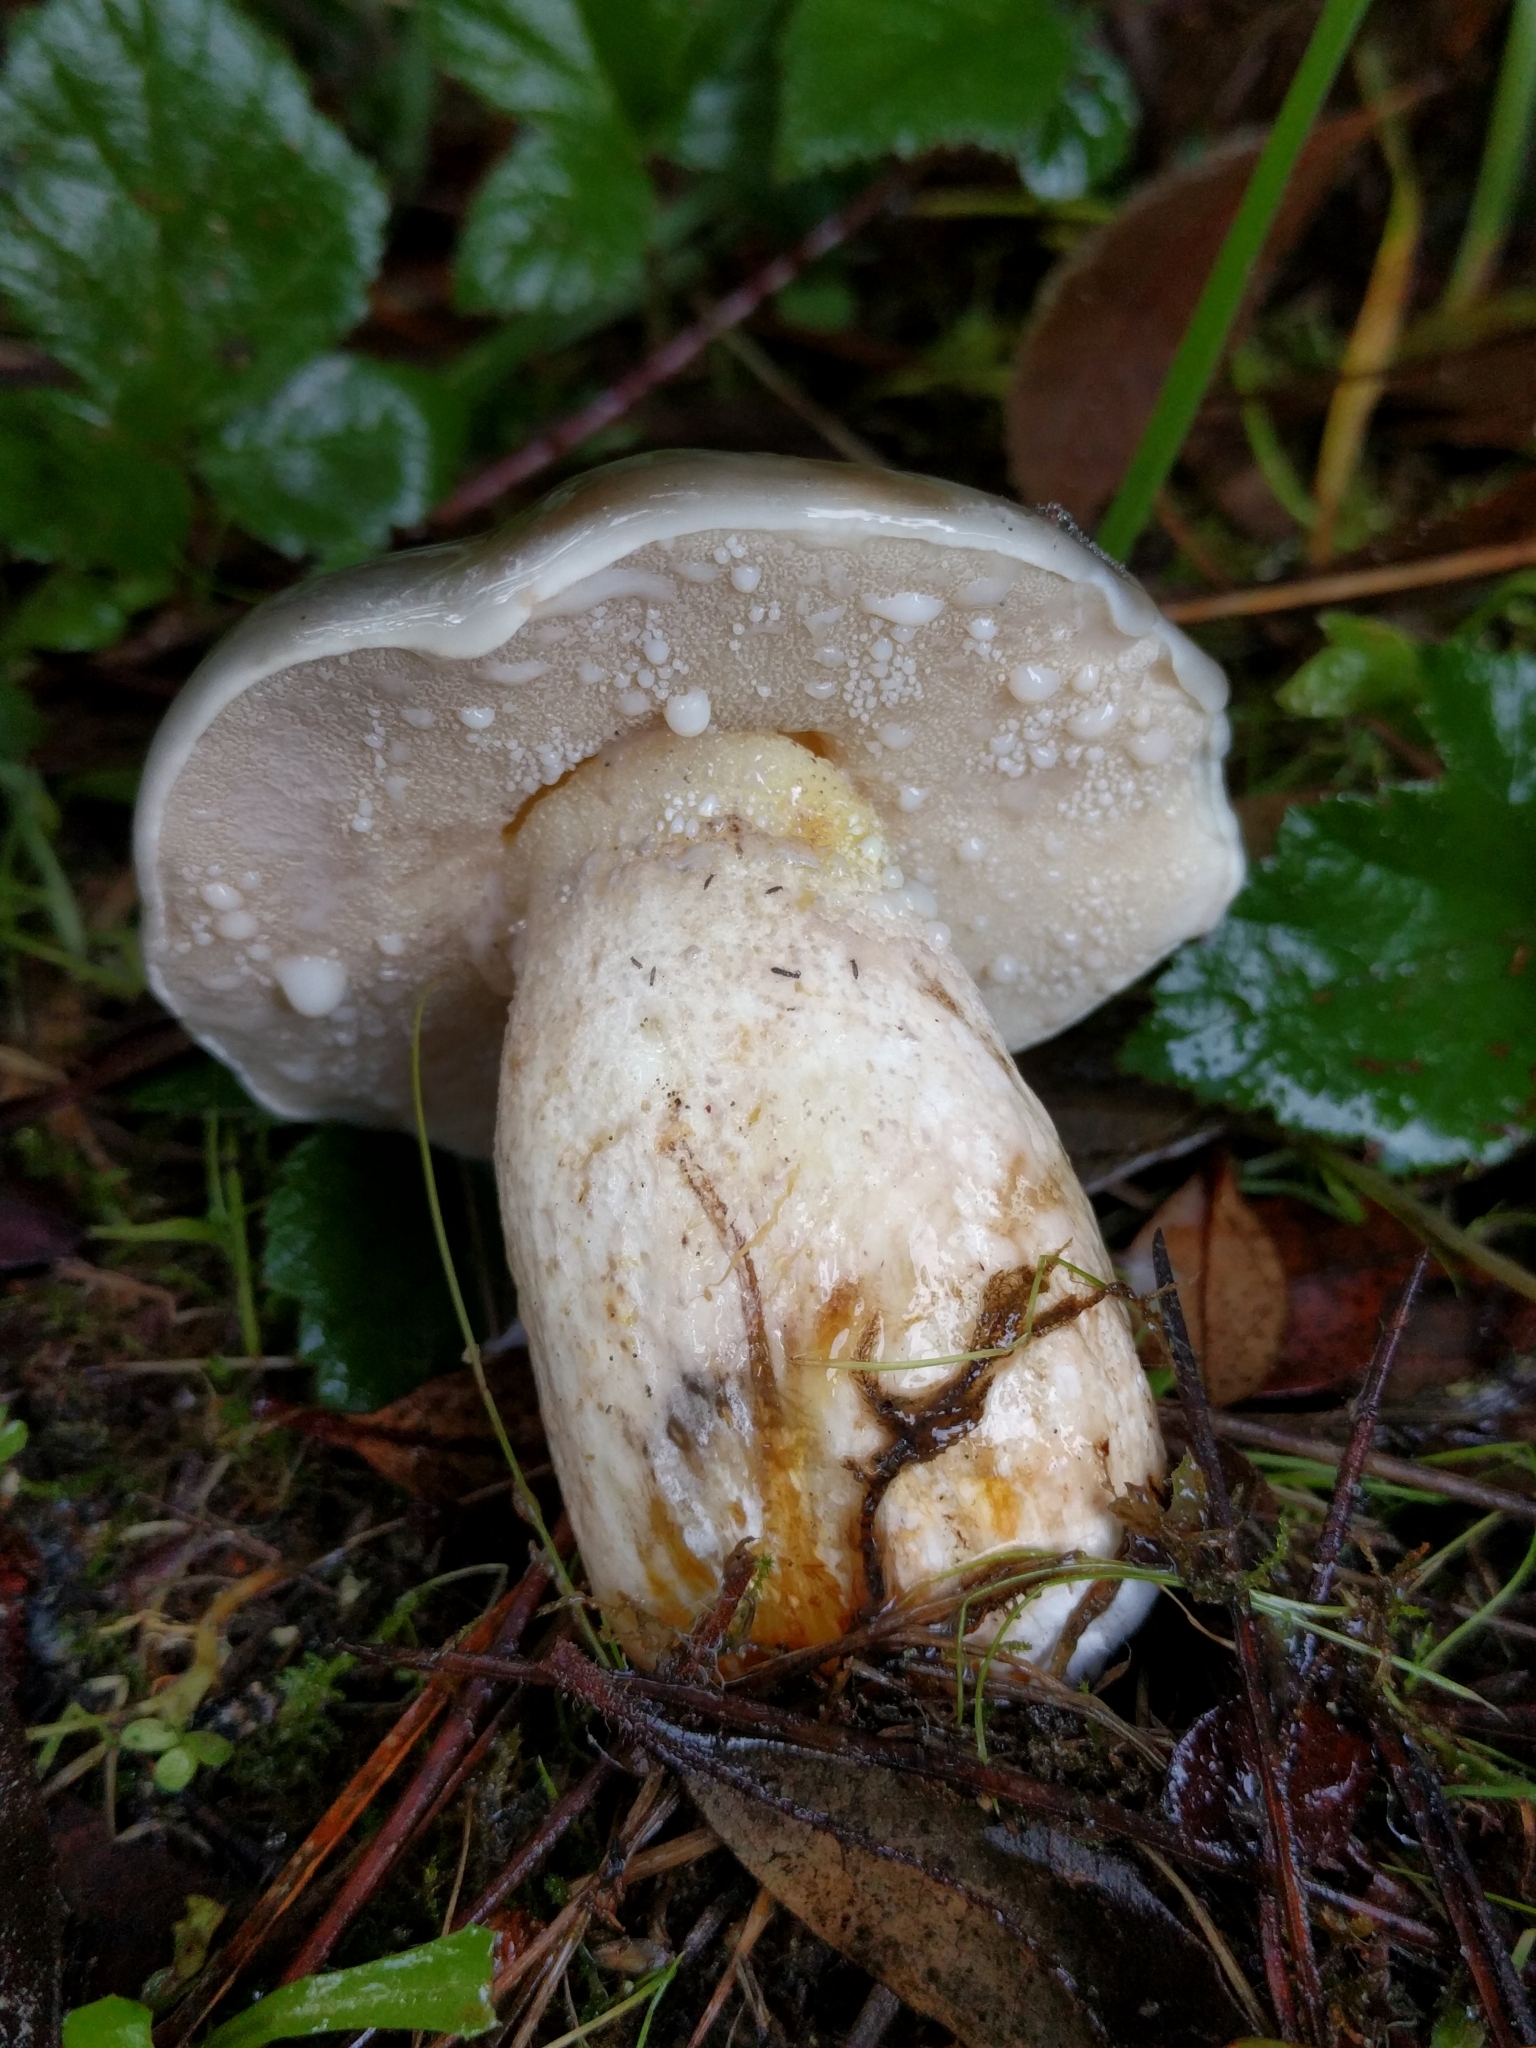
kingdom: Fungi
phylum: Basidiomycota
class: Agaricomycetes
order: Boletales
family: Suillaceae
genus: Suillus
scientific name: Suillus pungens
